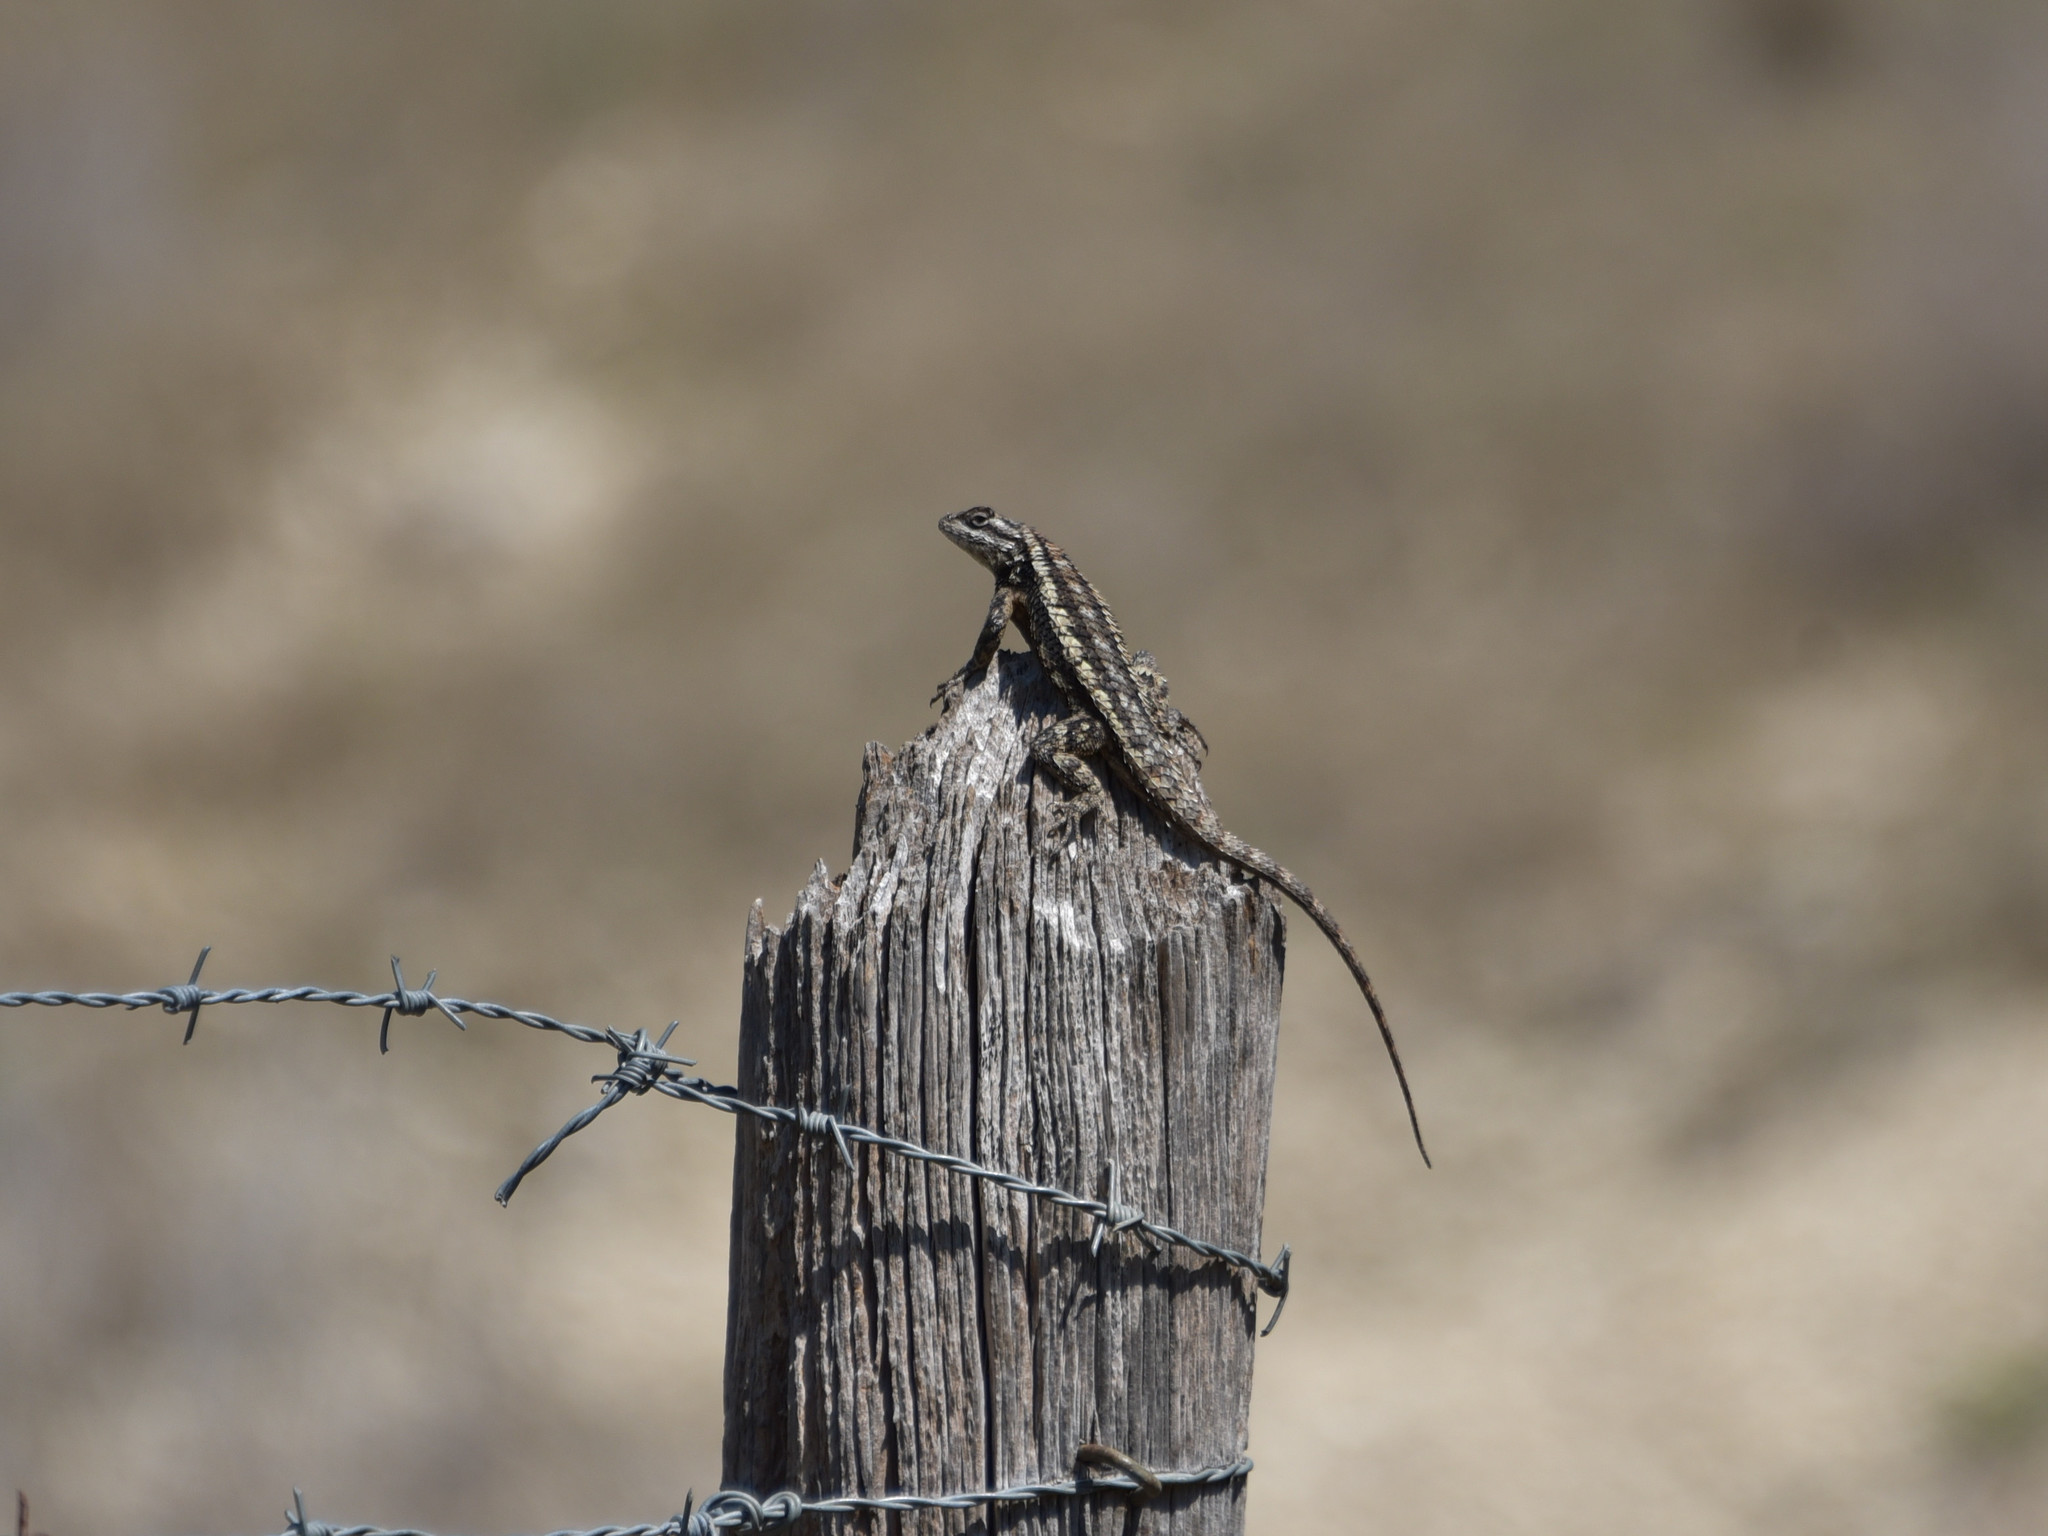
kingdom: Animalia
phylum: Chordata
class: Squamata
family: Phrynosomatidae
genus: Sceloporus
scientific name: Sceloporus olivaceus
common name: Texas spiny lizard
